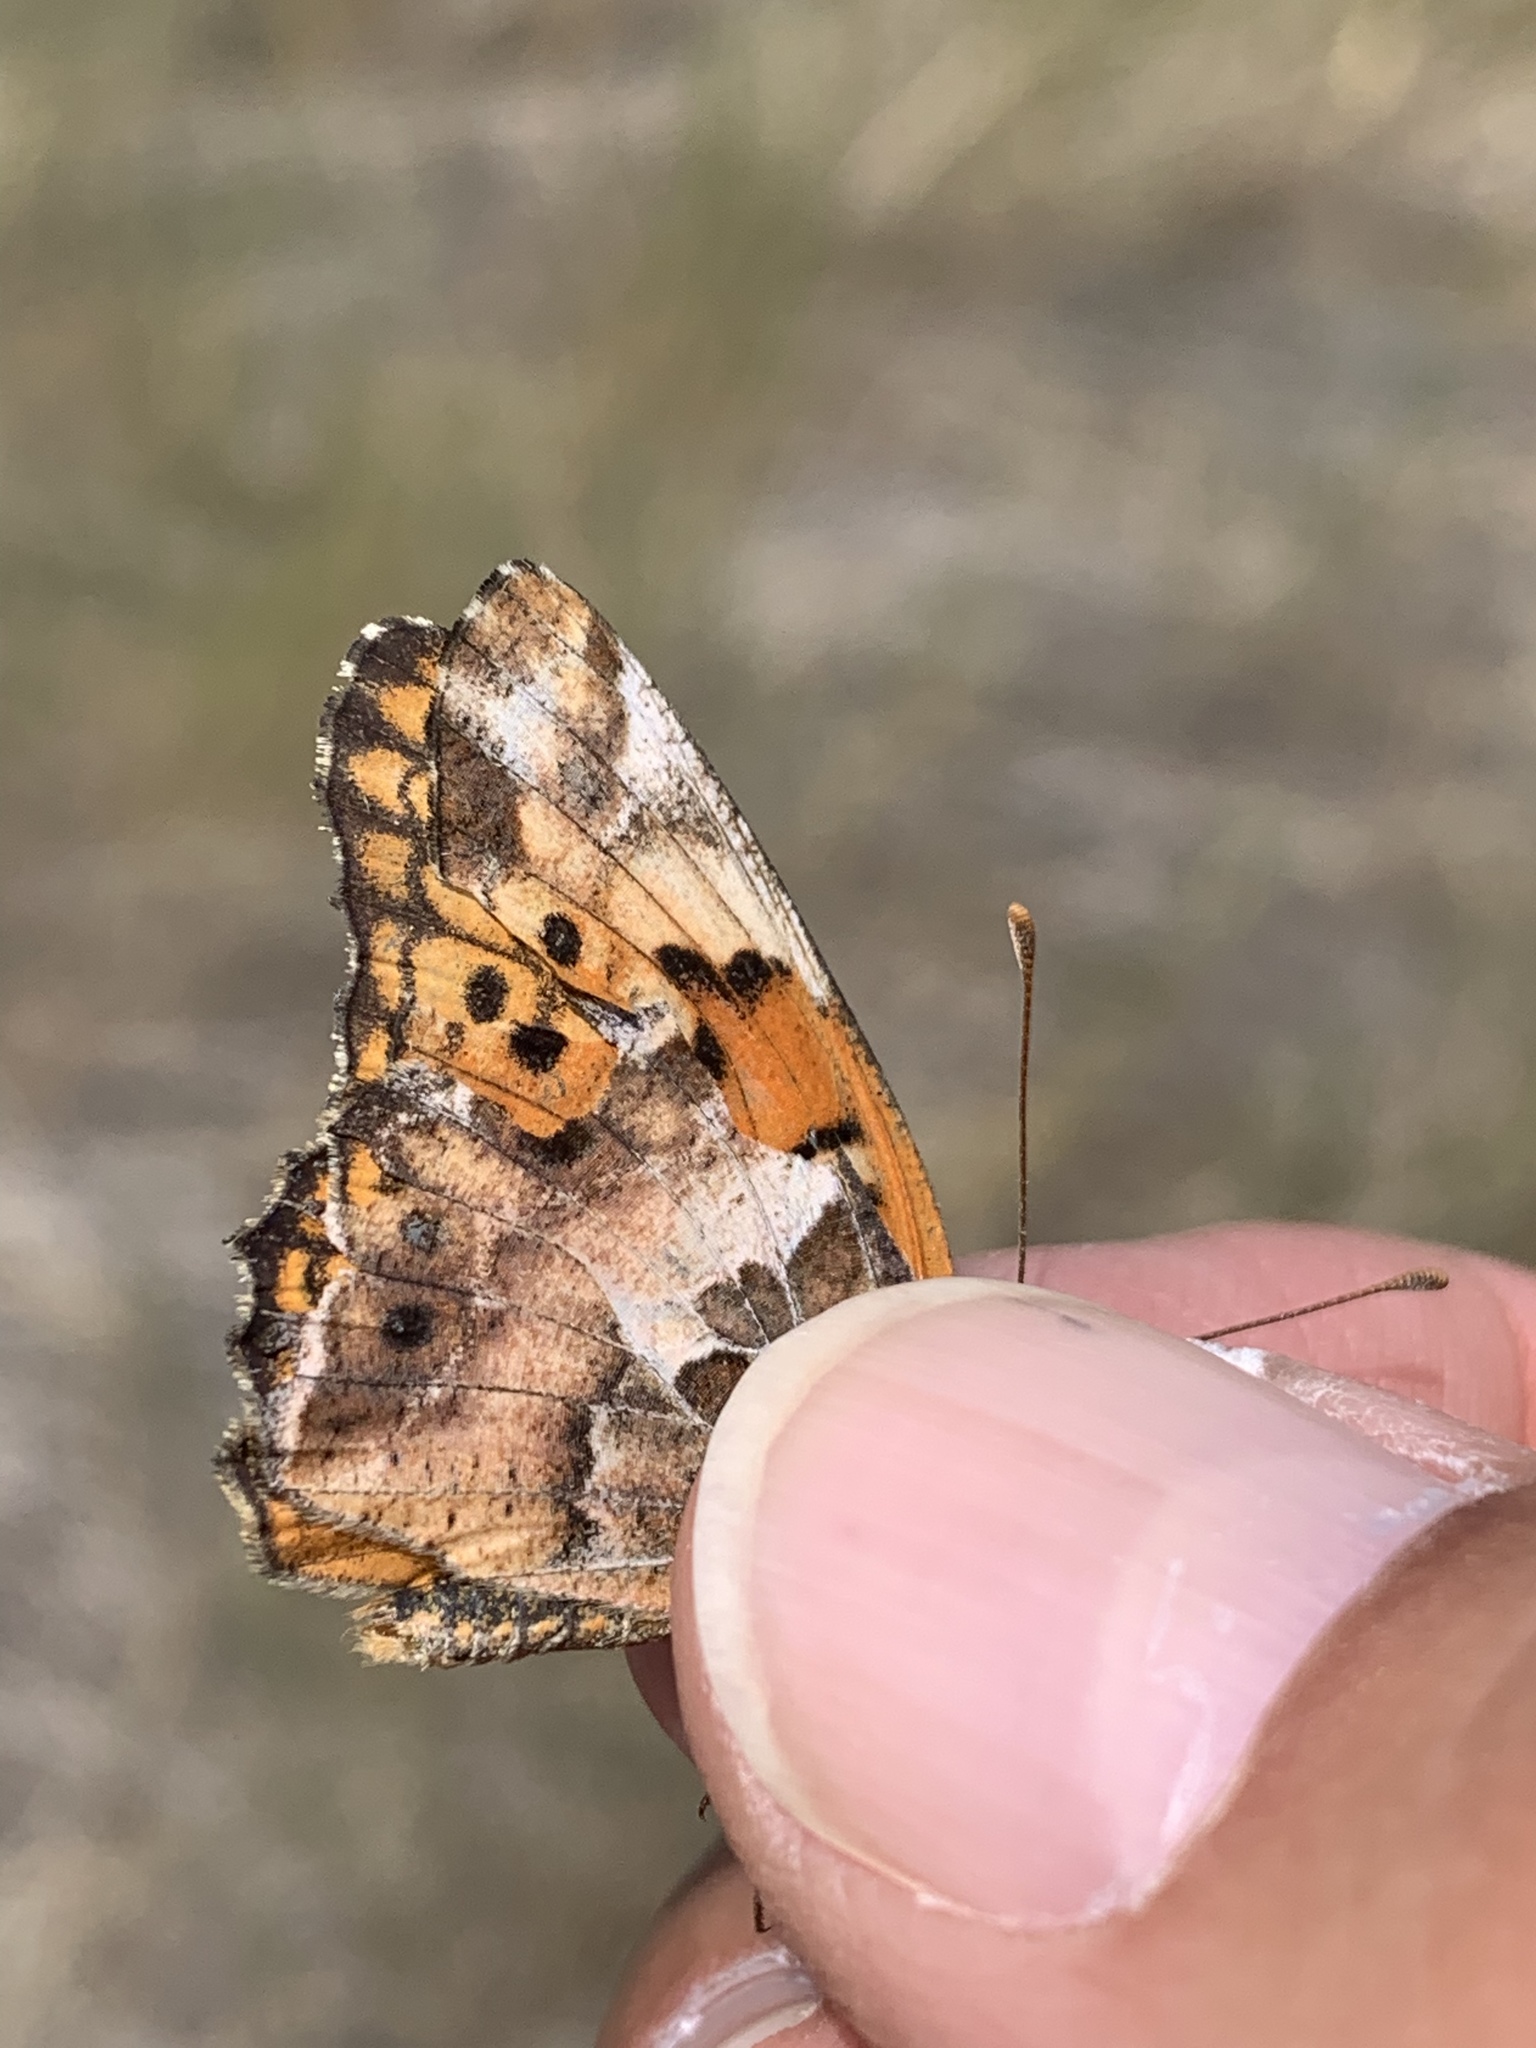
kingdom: Animalia
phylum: Arthropoda
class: Insecta
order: Lepidoptera
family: Nymphalidae
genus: Euptoieta
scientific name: Euptoieta claudia
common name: Variegated fritillary
